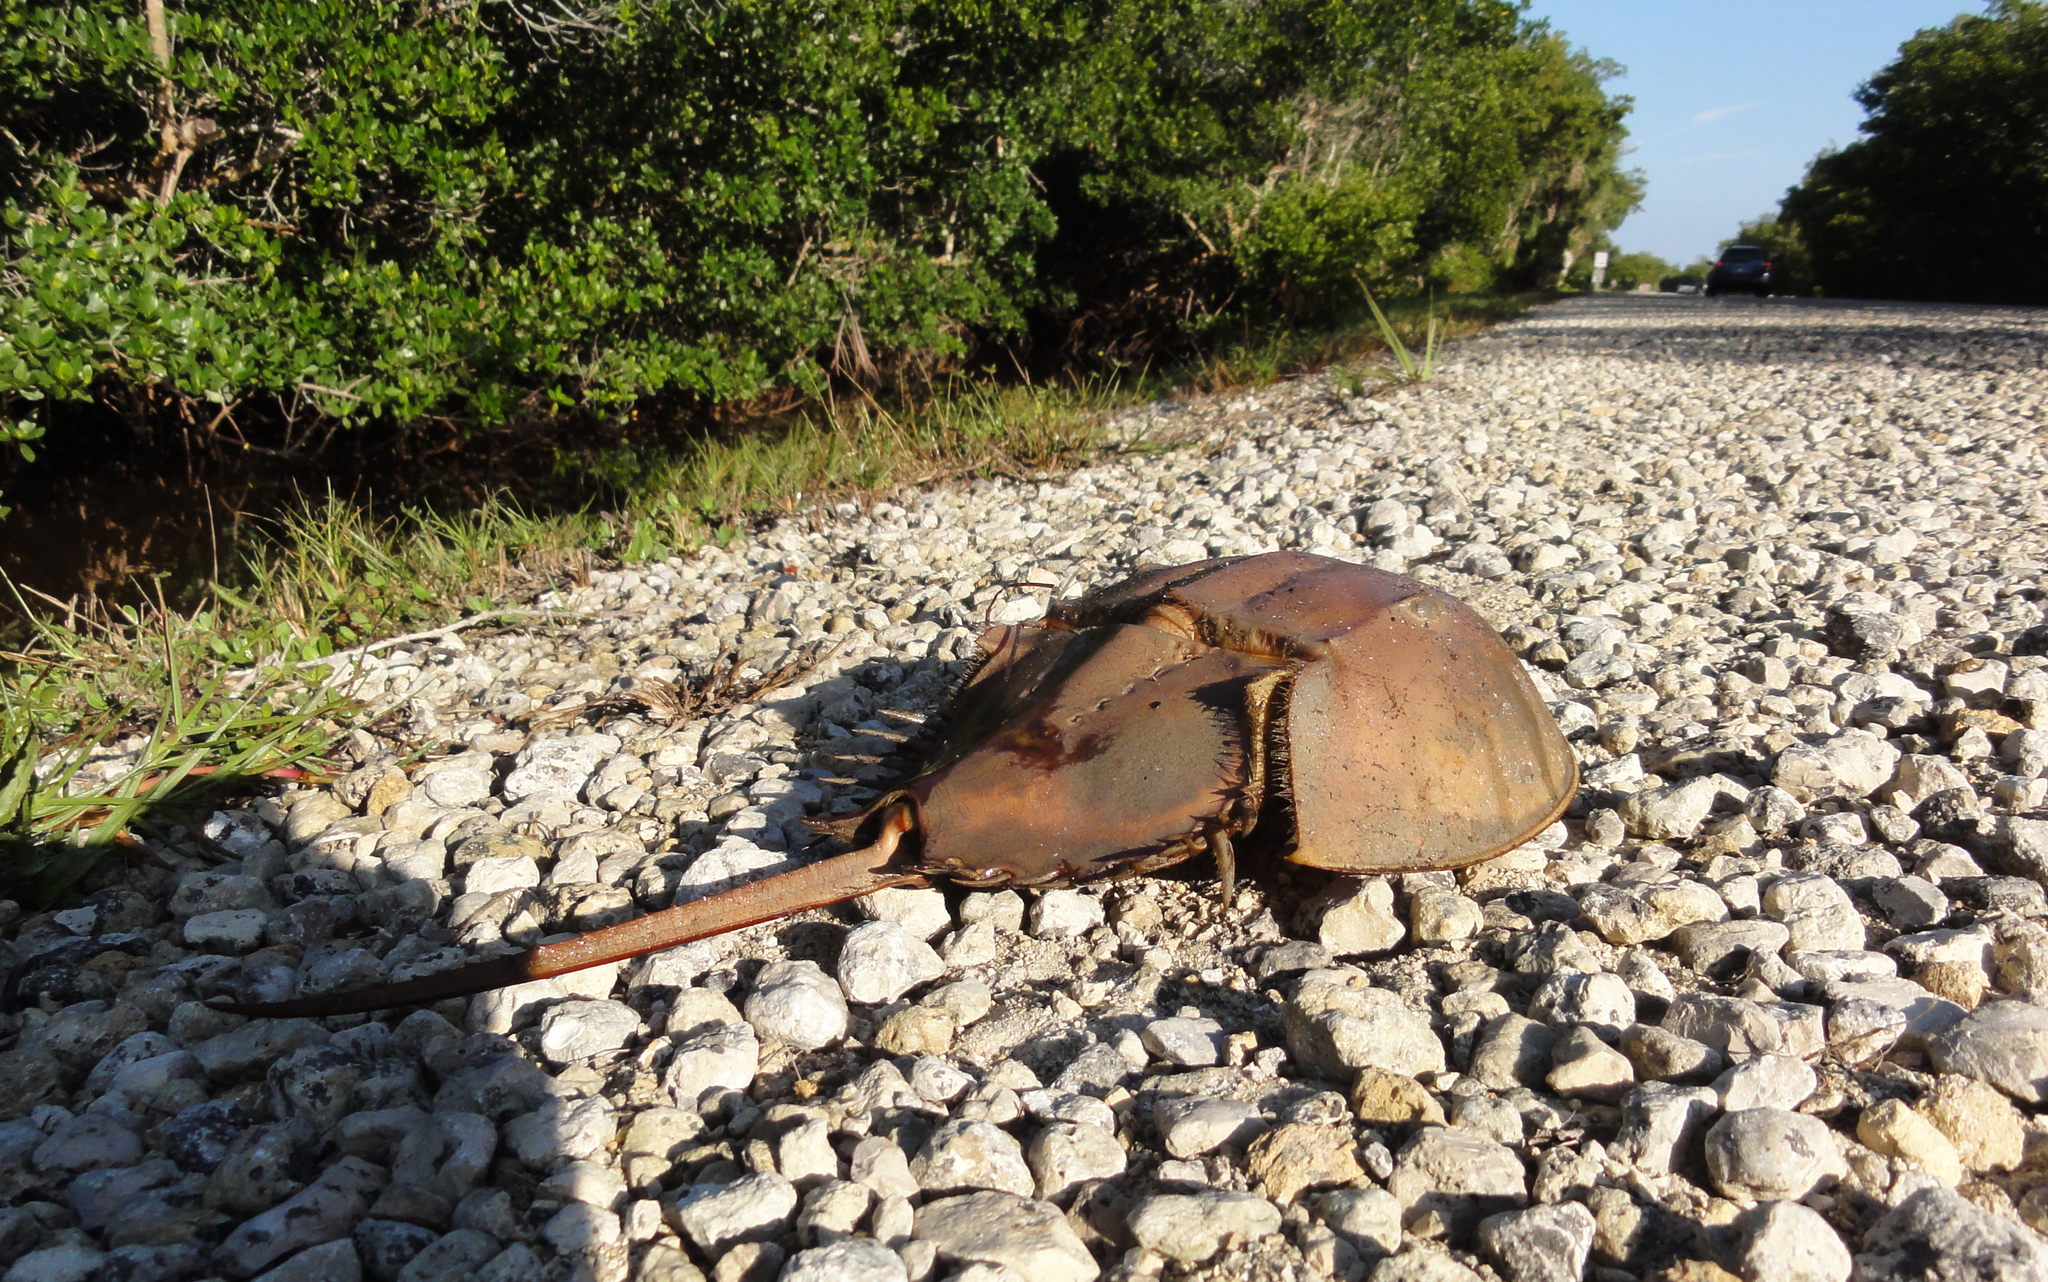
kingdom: Animalia
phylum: Arthropoda
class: Merostomata
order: Xiphosurida
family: Limulidae
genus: Limulus
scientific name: Limulus polyphemus
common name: Horseshoe crab
